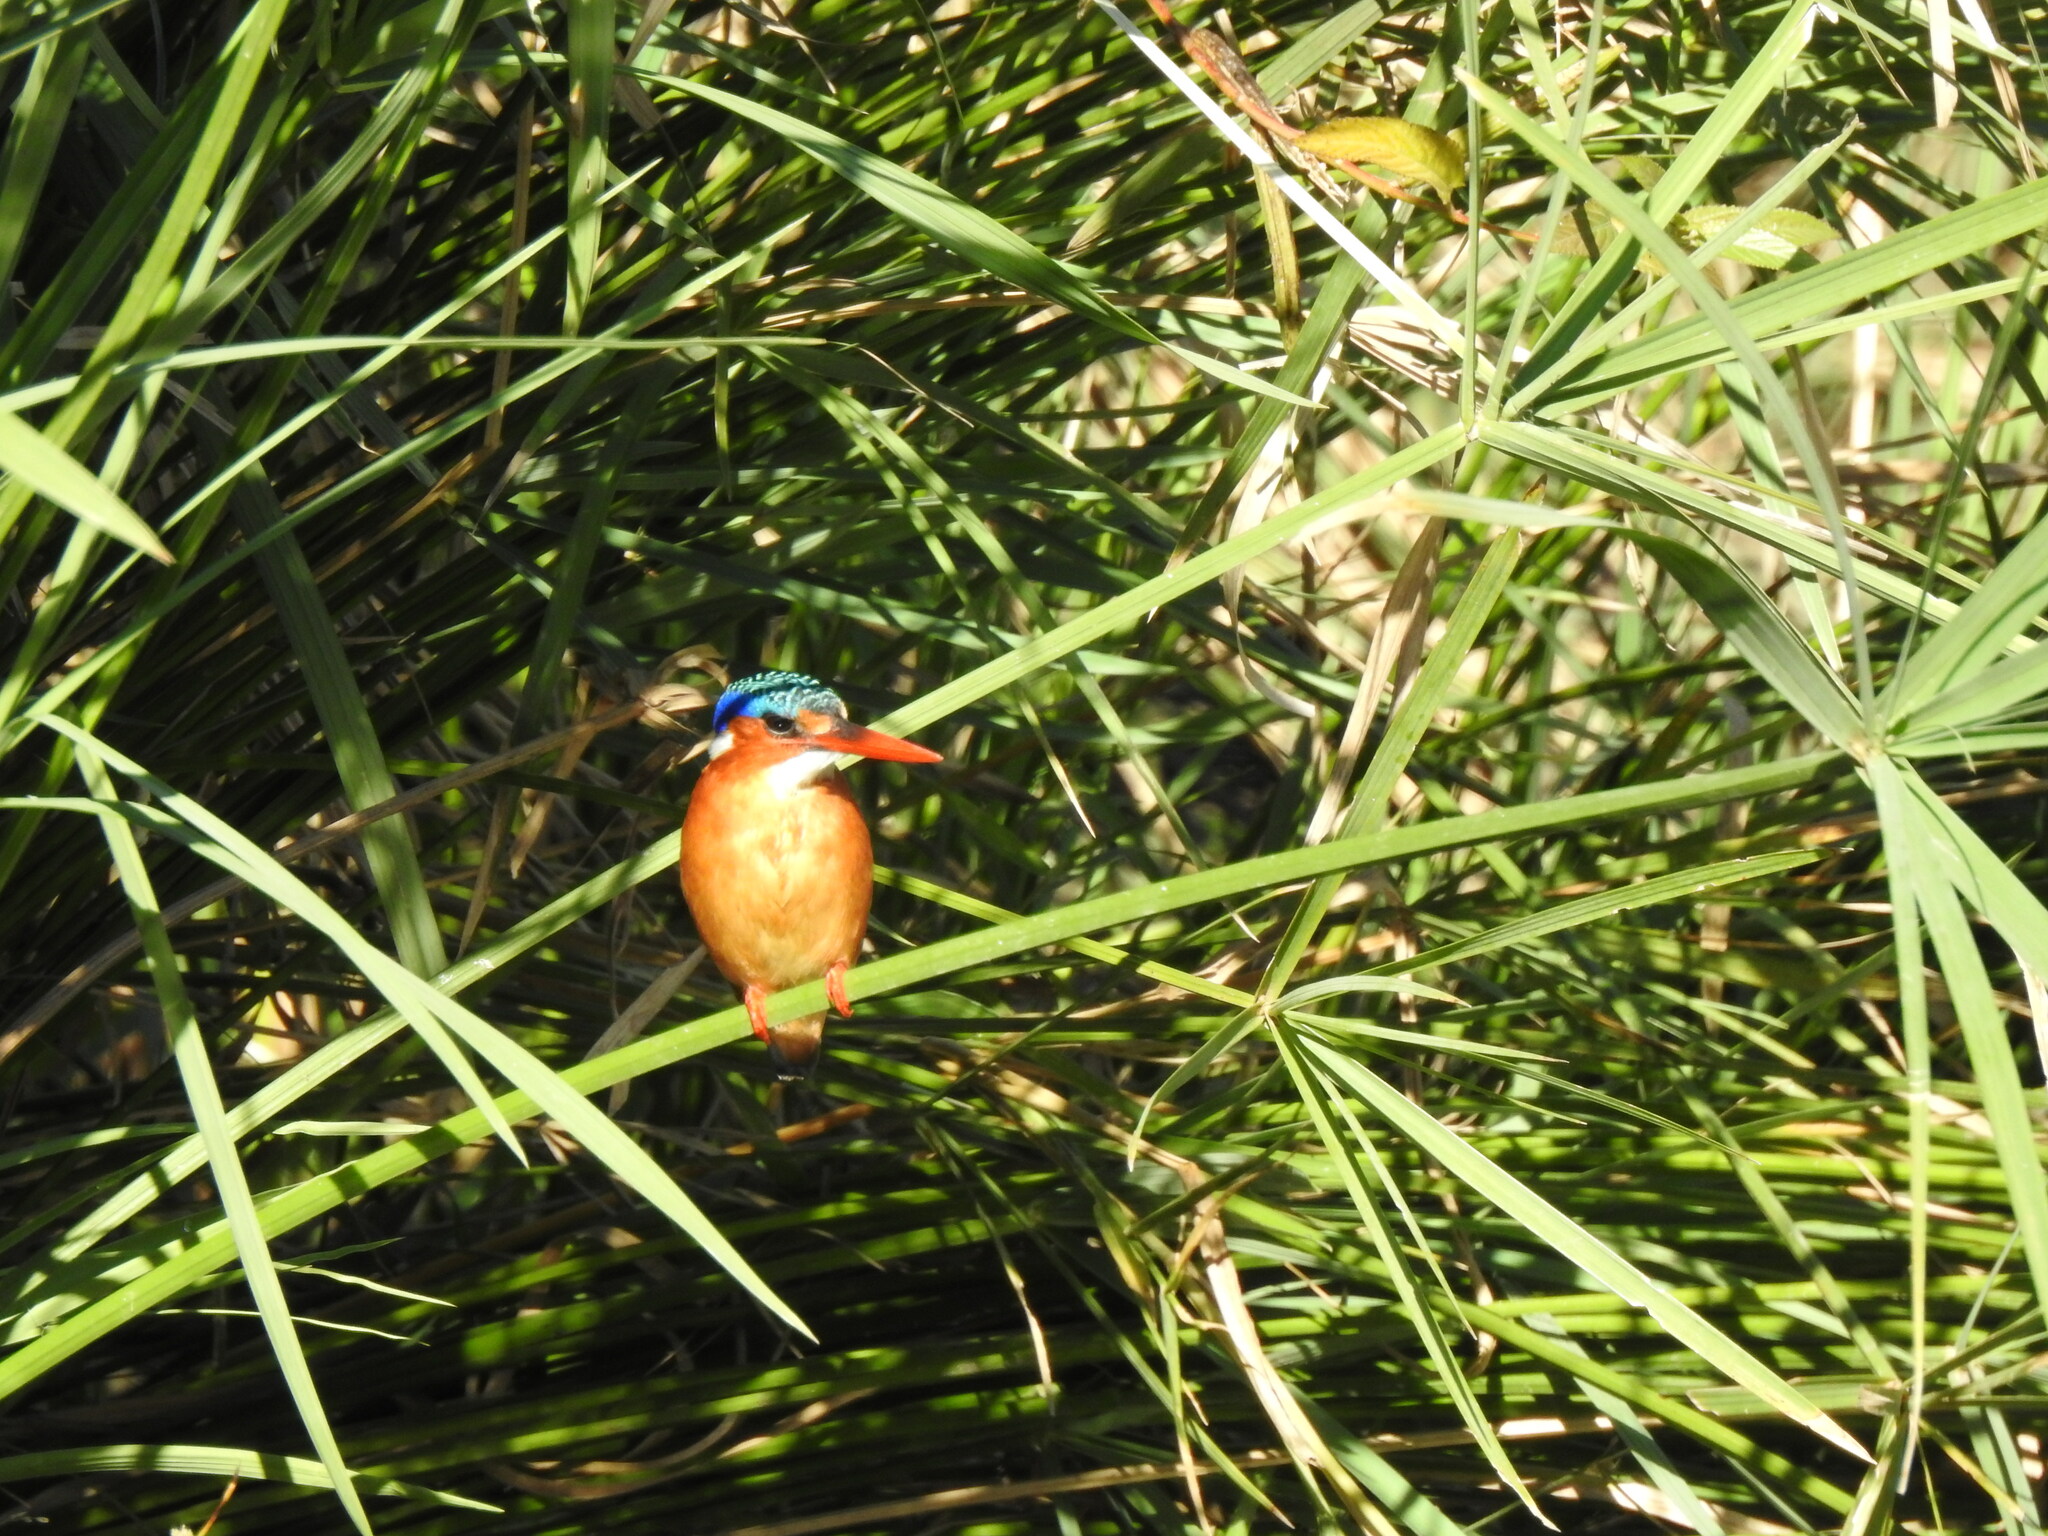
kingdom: Animalia
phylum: Chordata
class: Aves
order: Coraciiformes
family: Alcedinidae
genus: Corythornis
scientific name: Corythornis cristatus
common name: Malachite kingfisher
